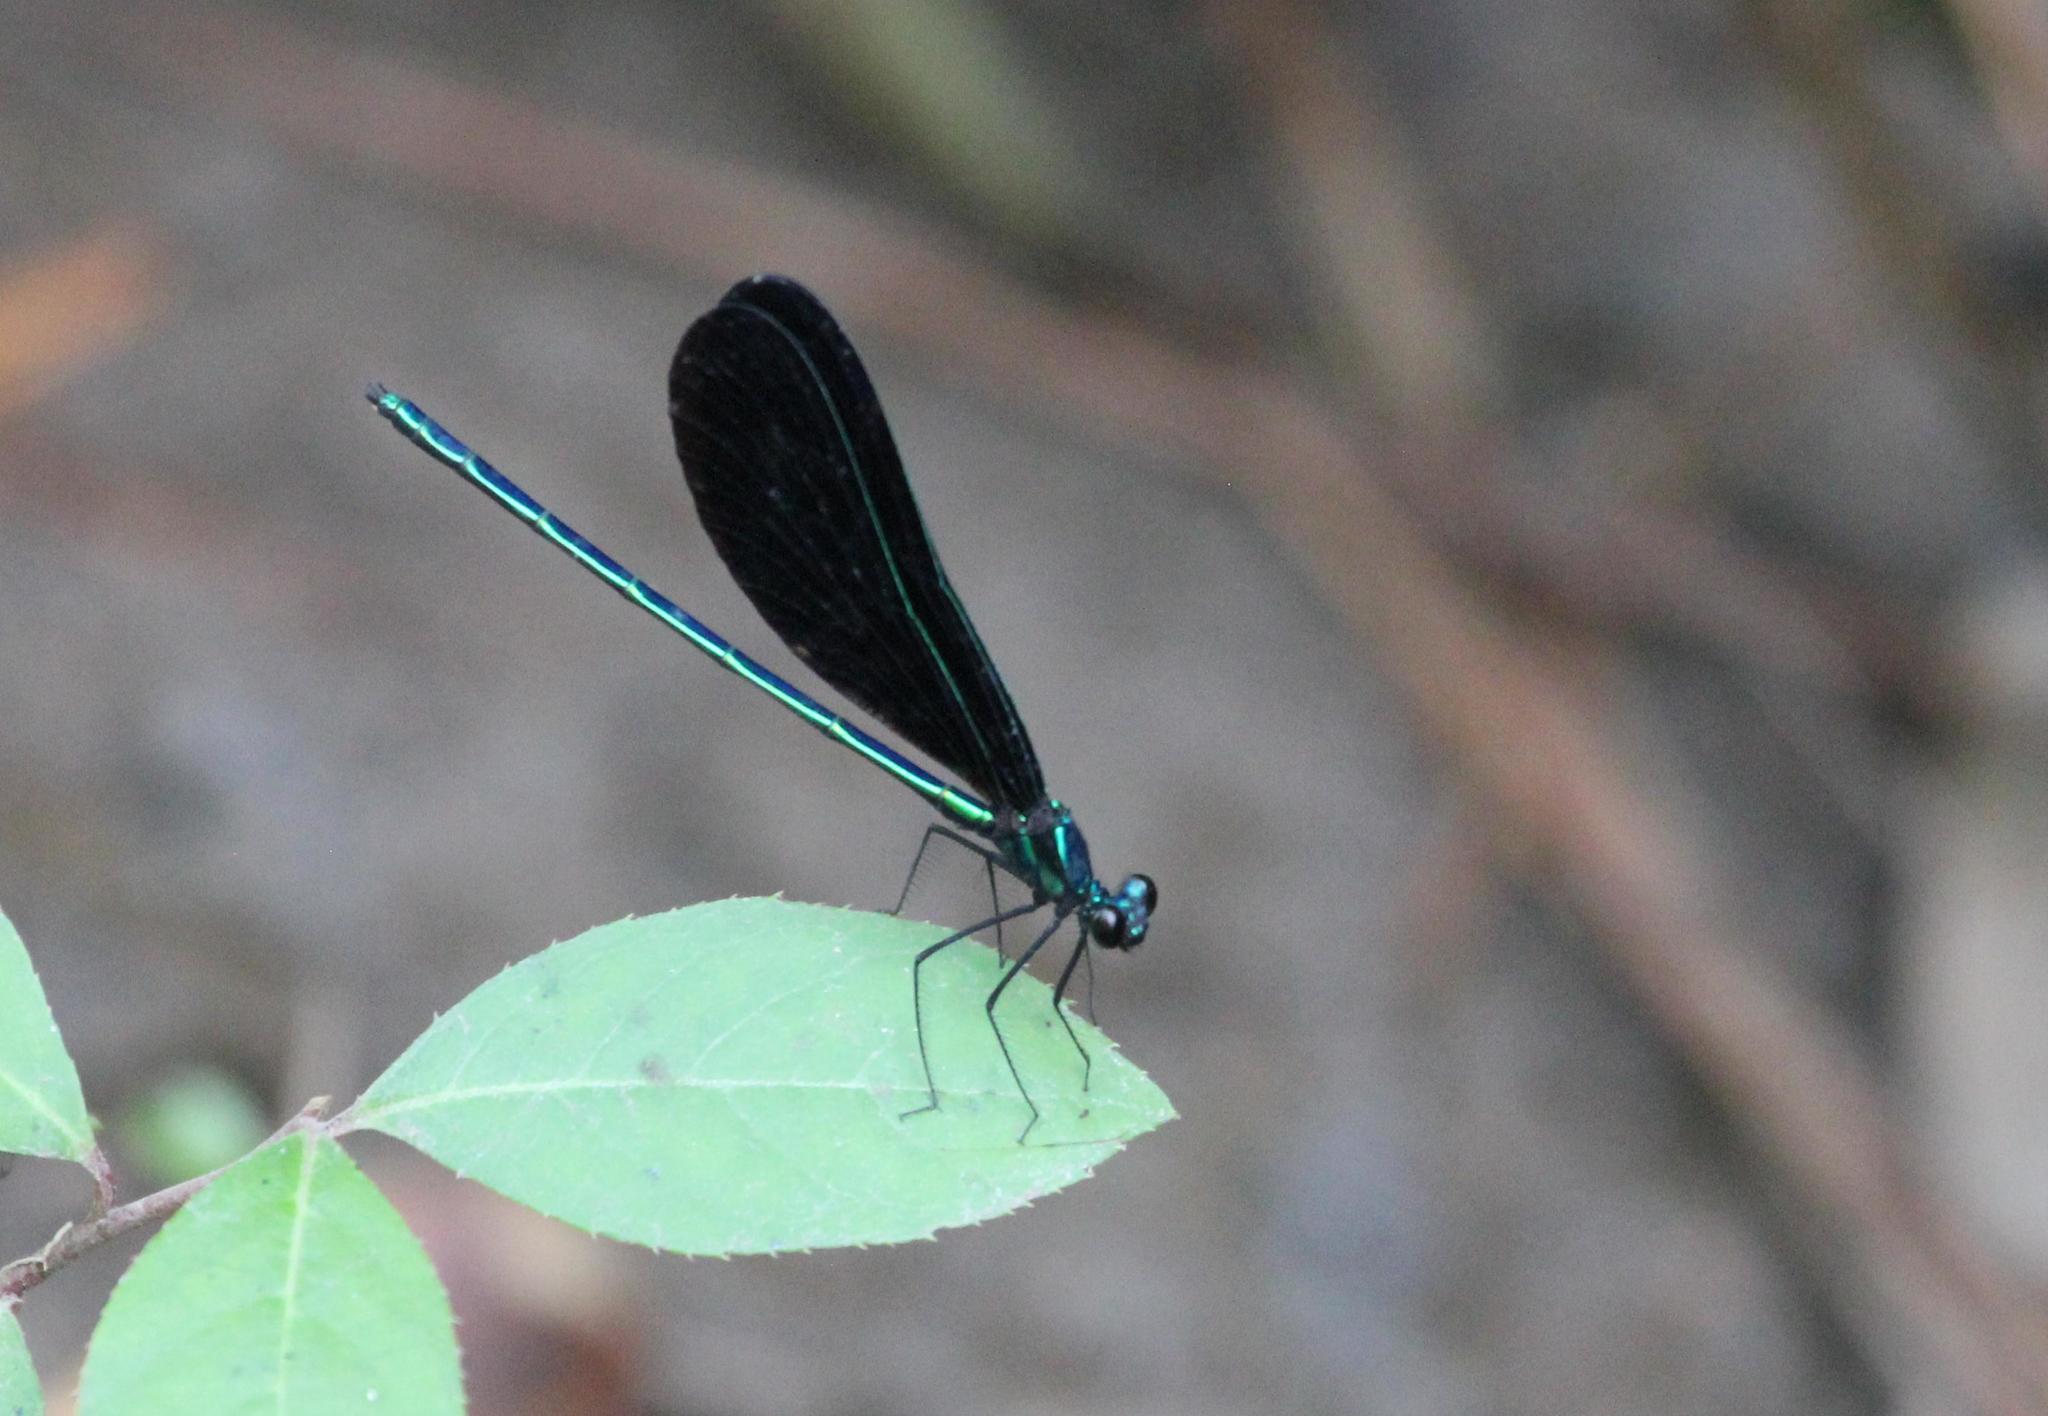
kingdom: Animalia
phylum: Arthropoda
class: Insecta
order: Odonata
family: Calopterygidae
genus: Calopteryx
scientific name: Calopteryx maculata
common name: Ebony jewelwing
